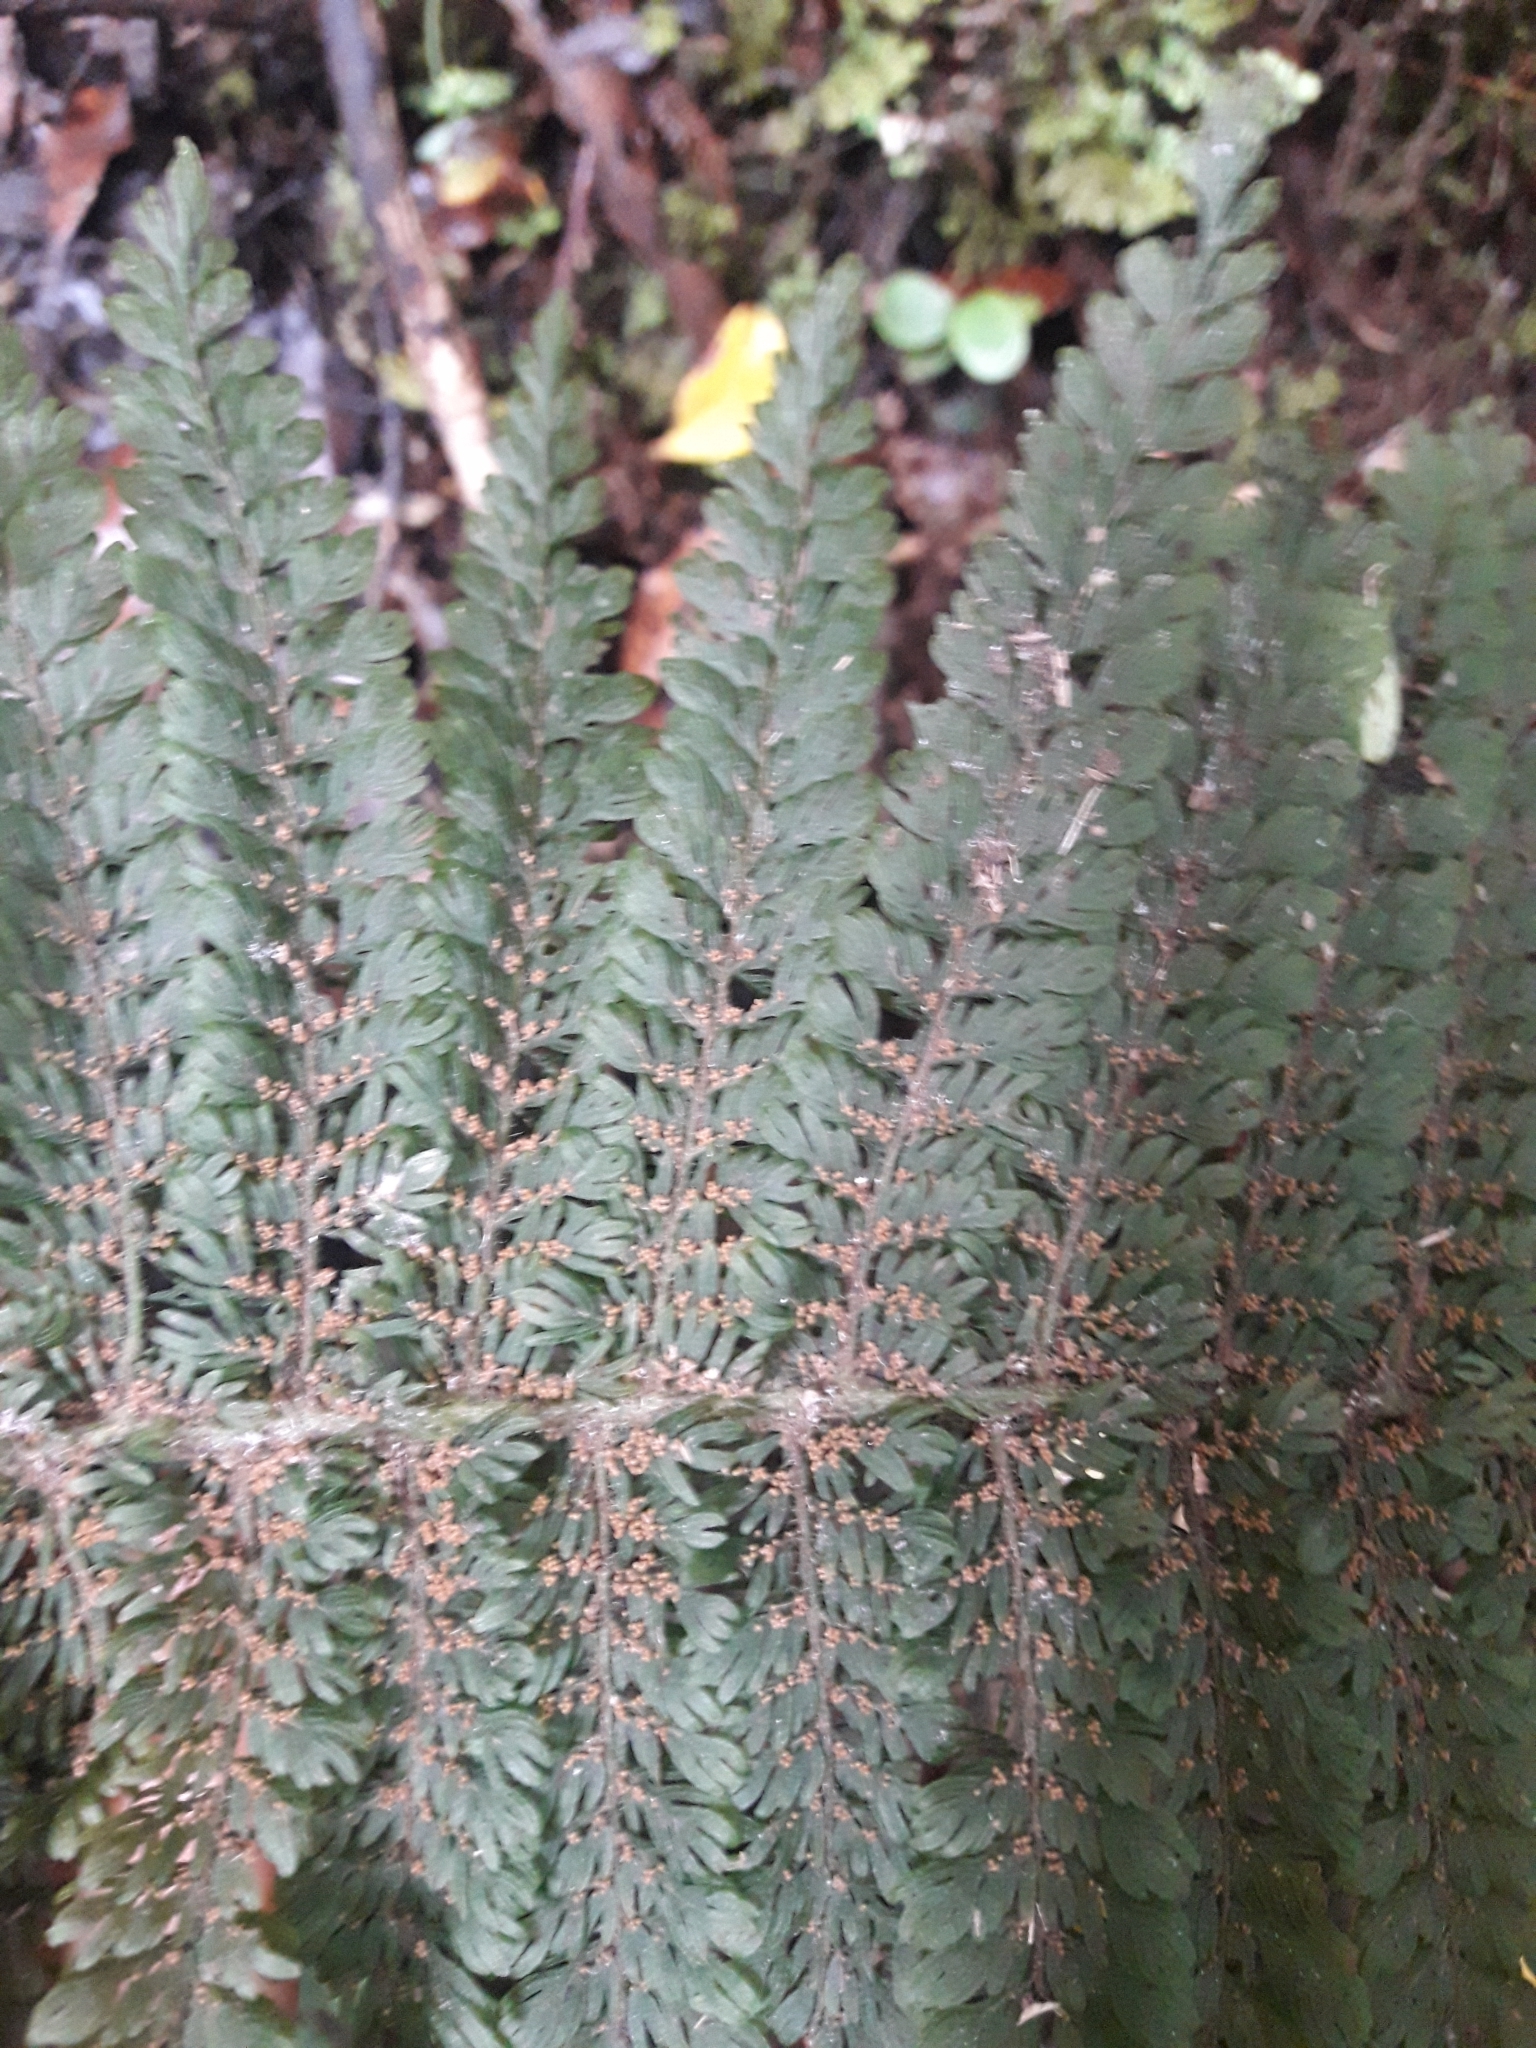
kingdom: Plantae
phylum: Tracheophyta
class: Polypodiopsida
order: Osmundales
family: Osmundaceae
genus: Leptopteris
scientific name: Leptopteris superba
